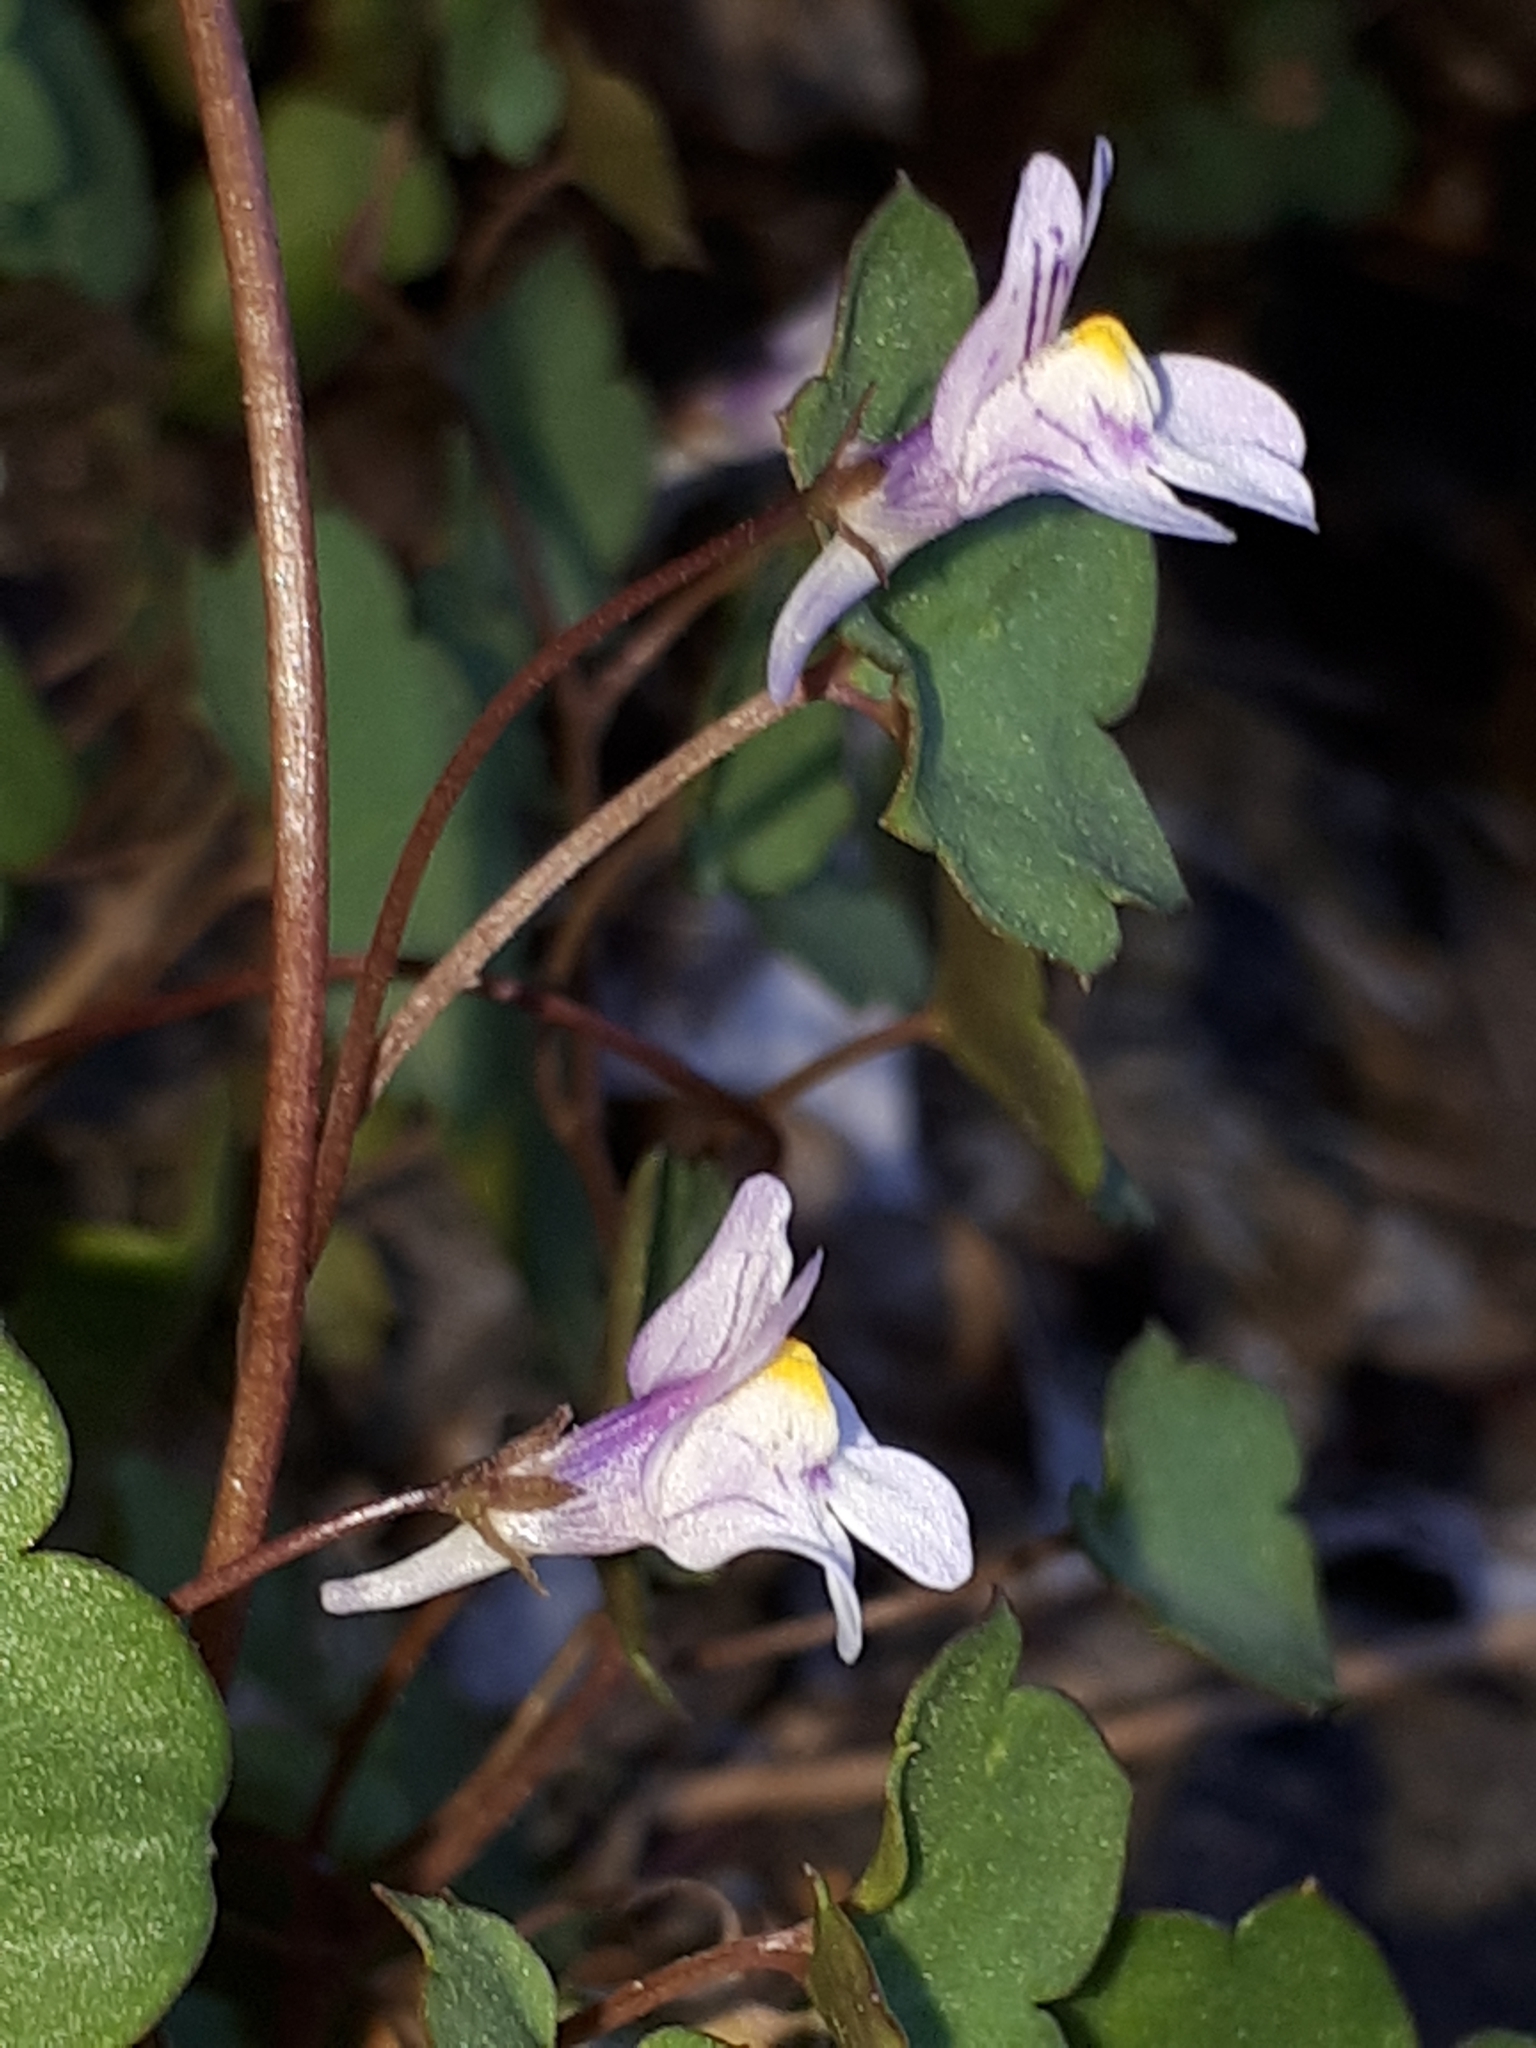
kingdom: Plantae
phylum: Tracheophyta
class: Magnoliopsida
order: Lamiales
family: Plantaginaceae
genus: Cymbalaria
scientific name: Cymbalaria muralis
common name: Ivy-leaved toadflax
